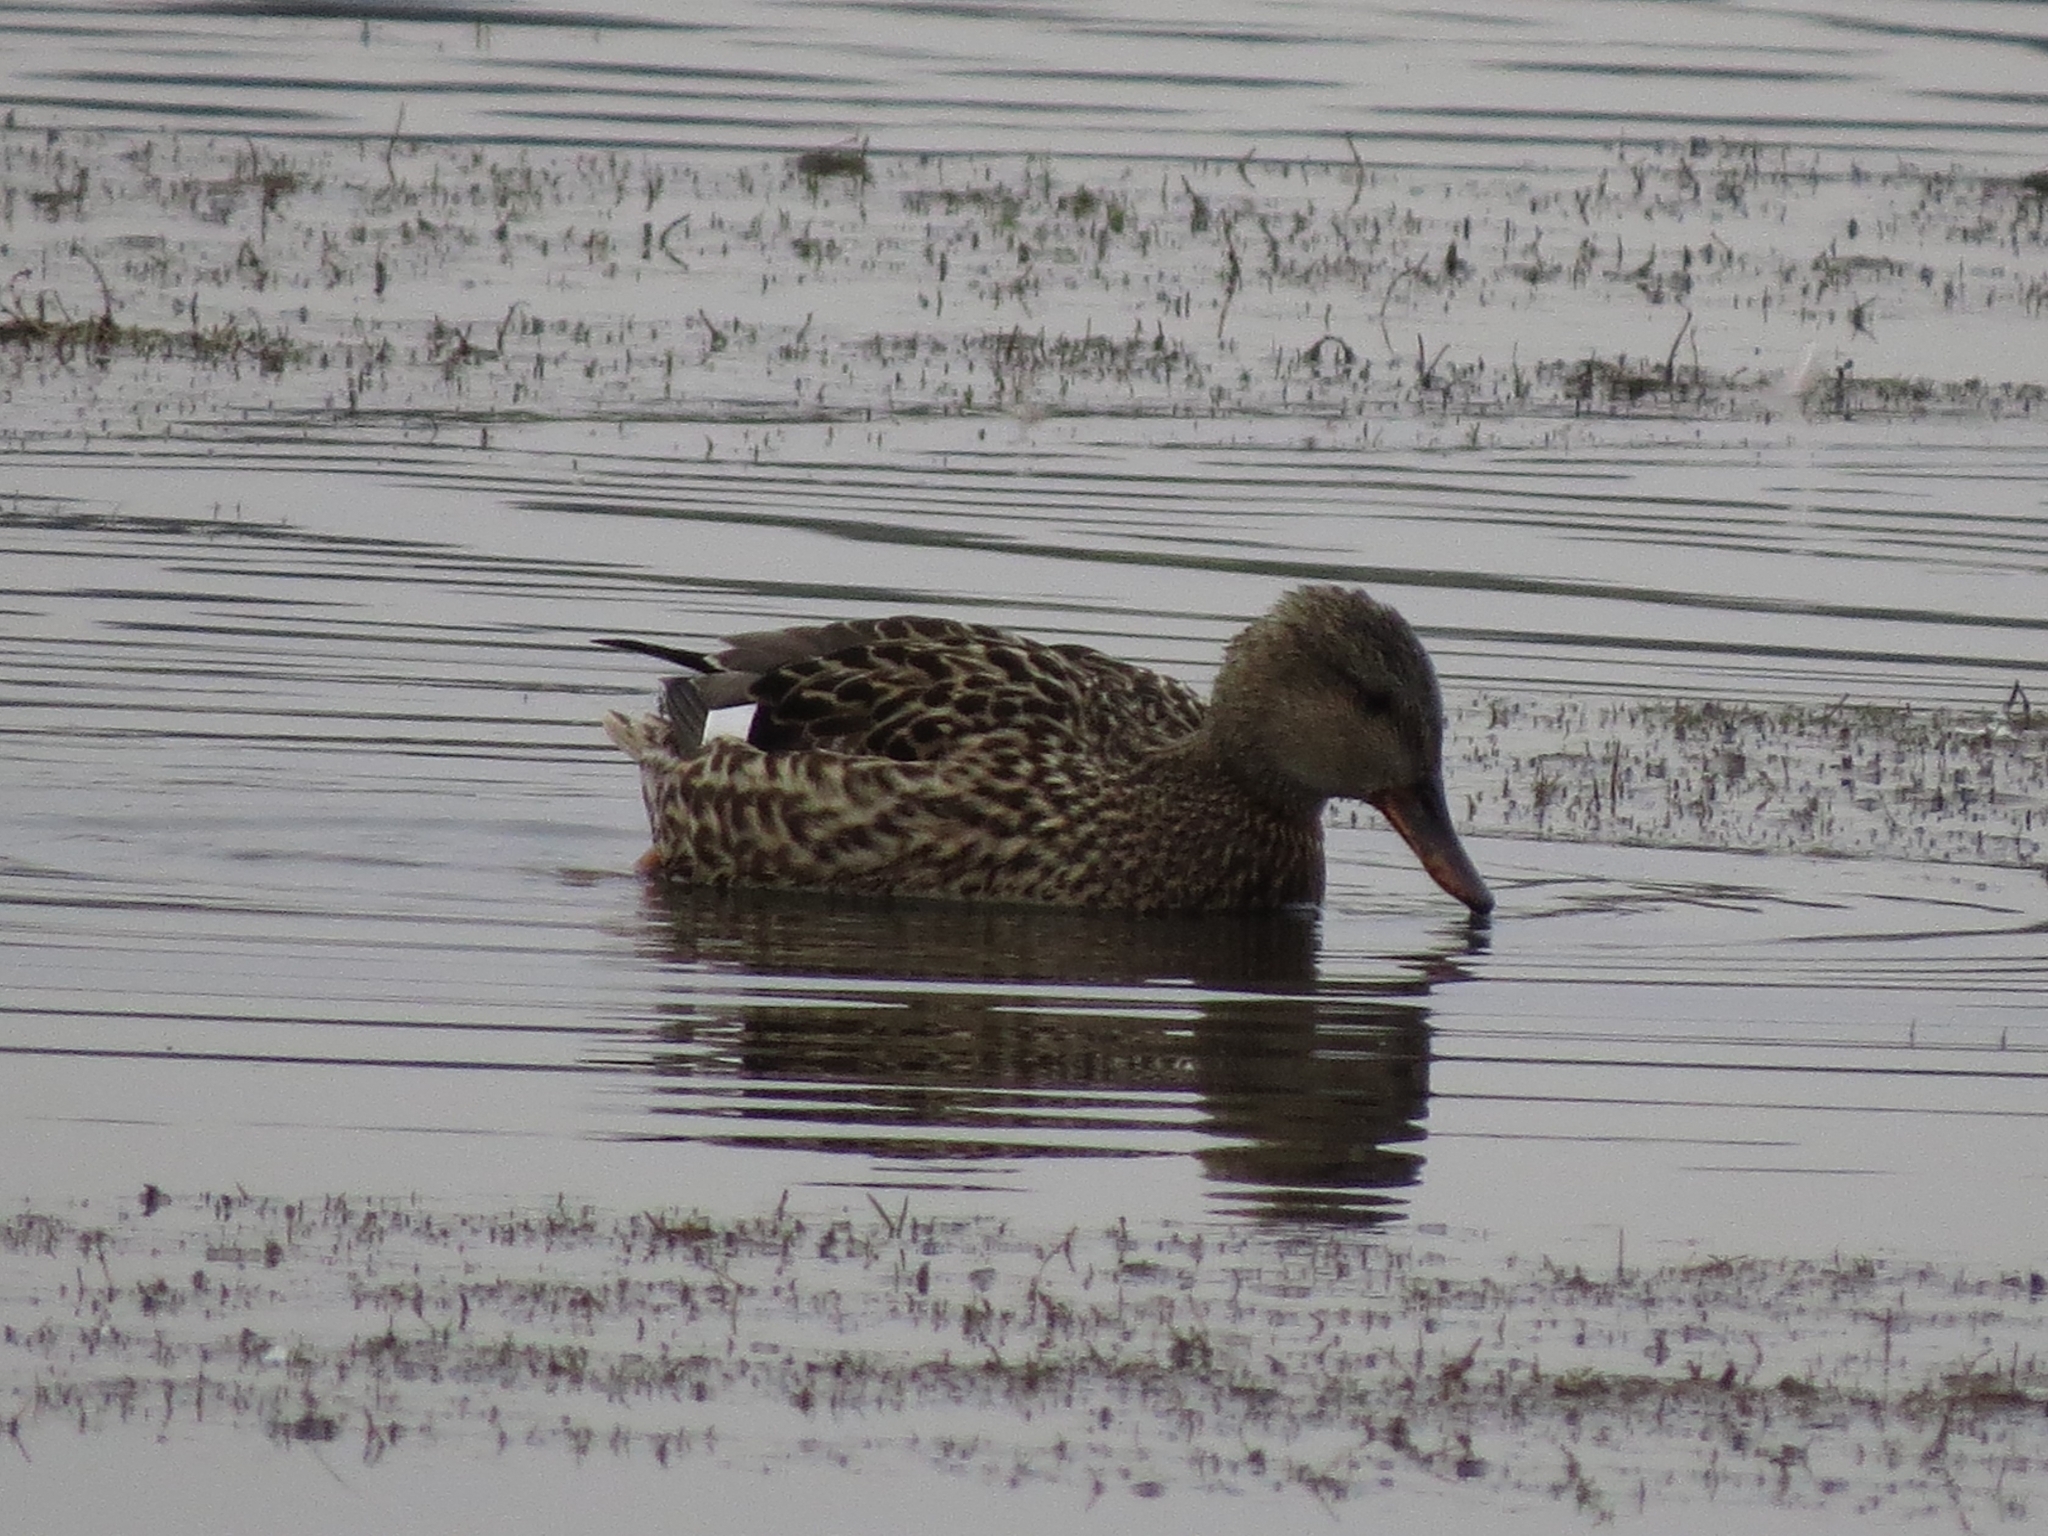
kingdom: Animalia
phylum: Chordata
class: Aves
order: Anseriformes
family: Anatidae
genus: Mareca
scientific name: Mareca strepera
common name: Gadwall
